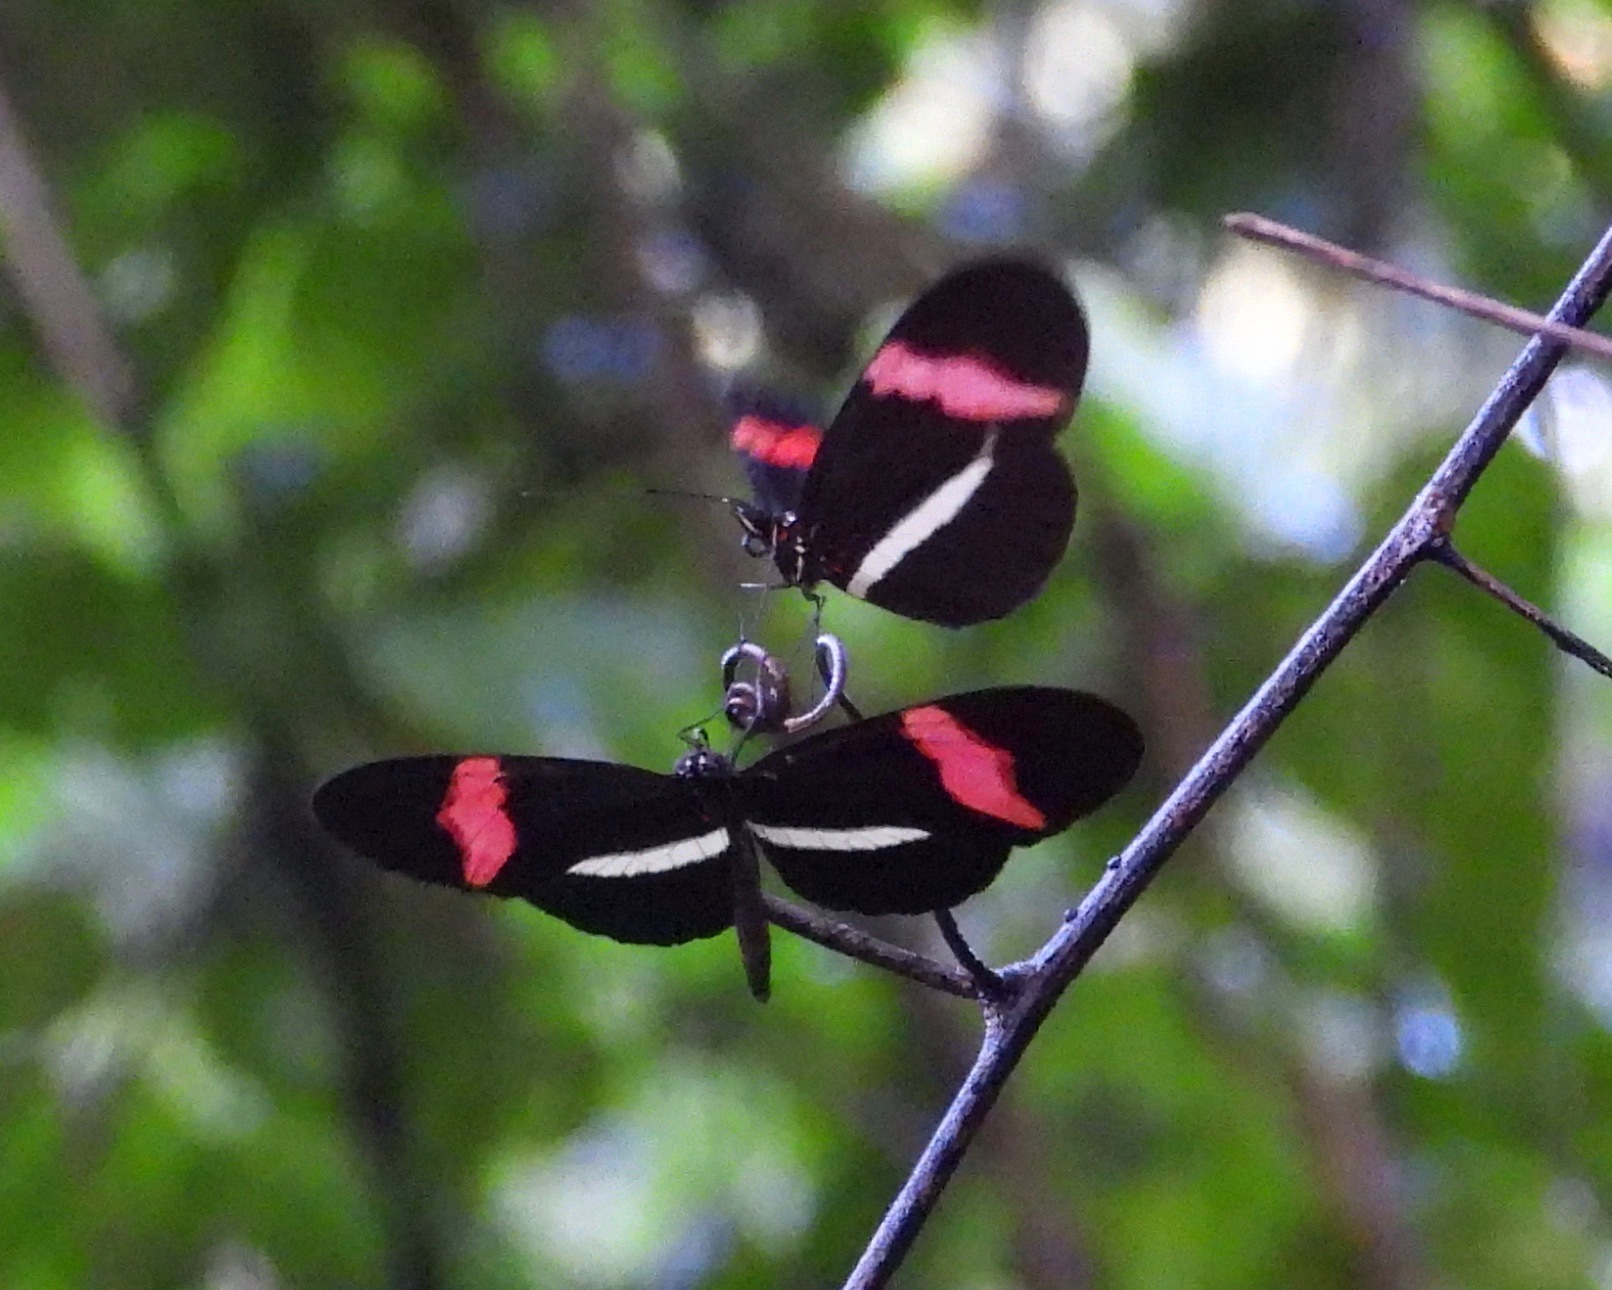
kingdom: Animalia
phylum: Arthropoda
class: Insecta
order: Lepidoptera
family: Nymphalidae
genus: Heliconius
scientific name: Heliconius erato
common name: Common patch longwing
